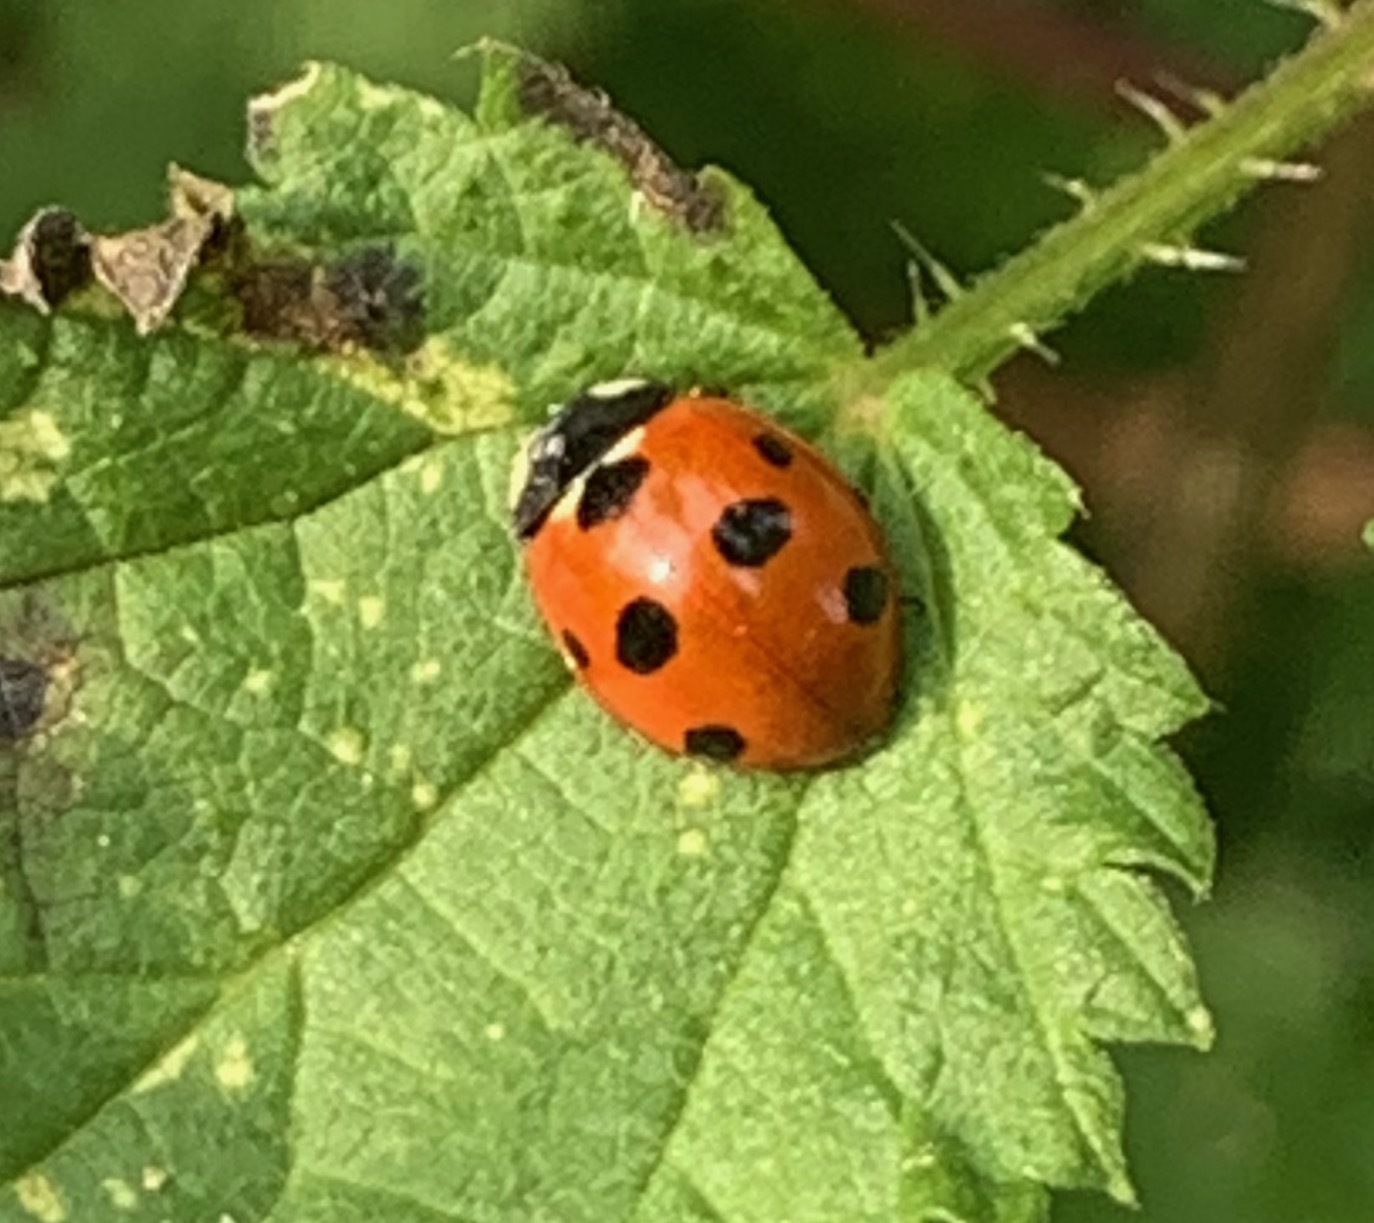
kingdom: Animalia
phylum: Arthropoda
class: Insecta
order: Coleoptera
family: Coccinellidae
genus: Coccinella
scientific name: Coccinella septempunctata
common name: Sevenspotted lady beetle
